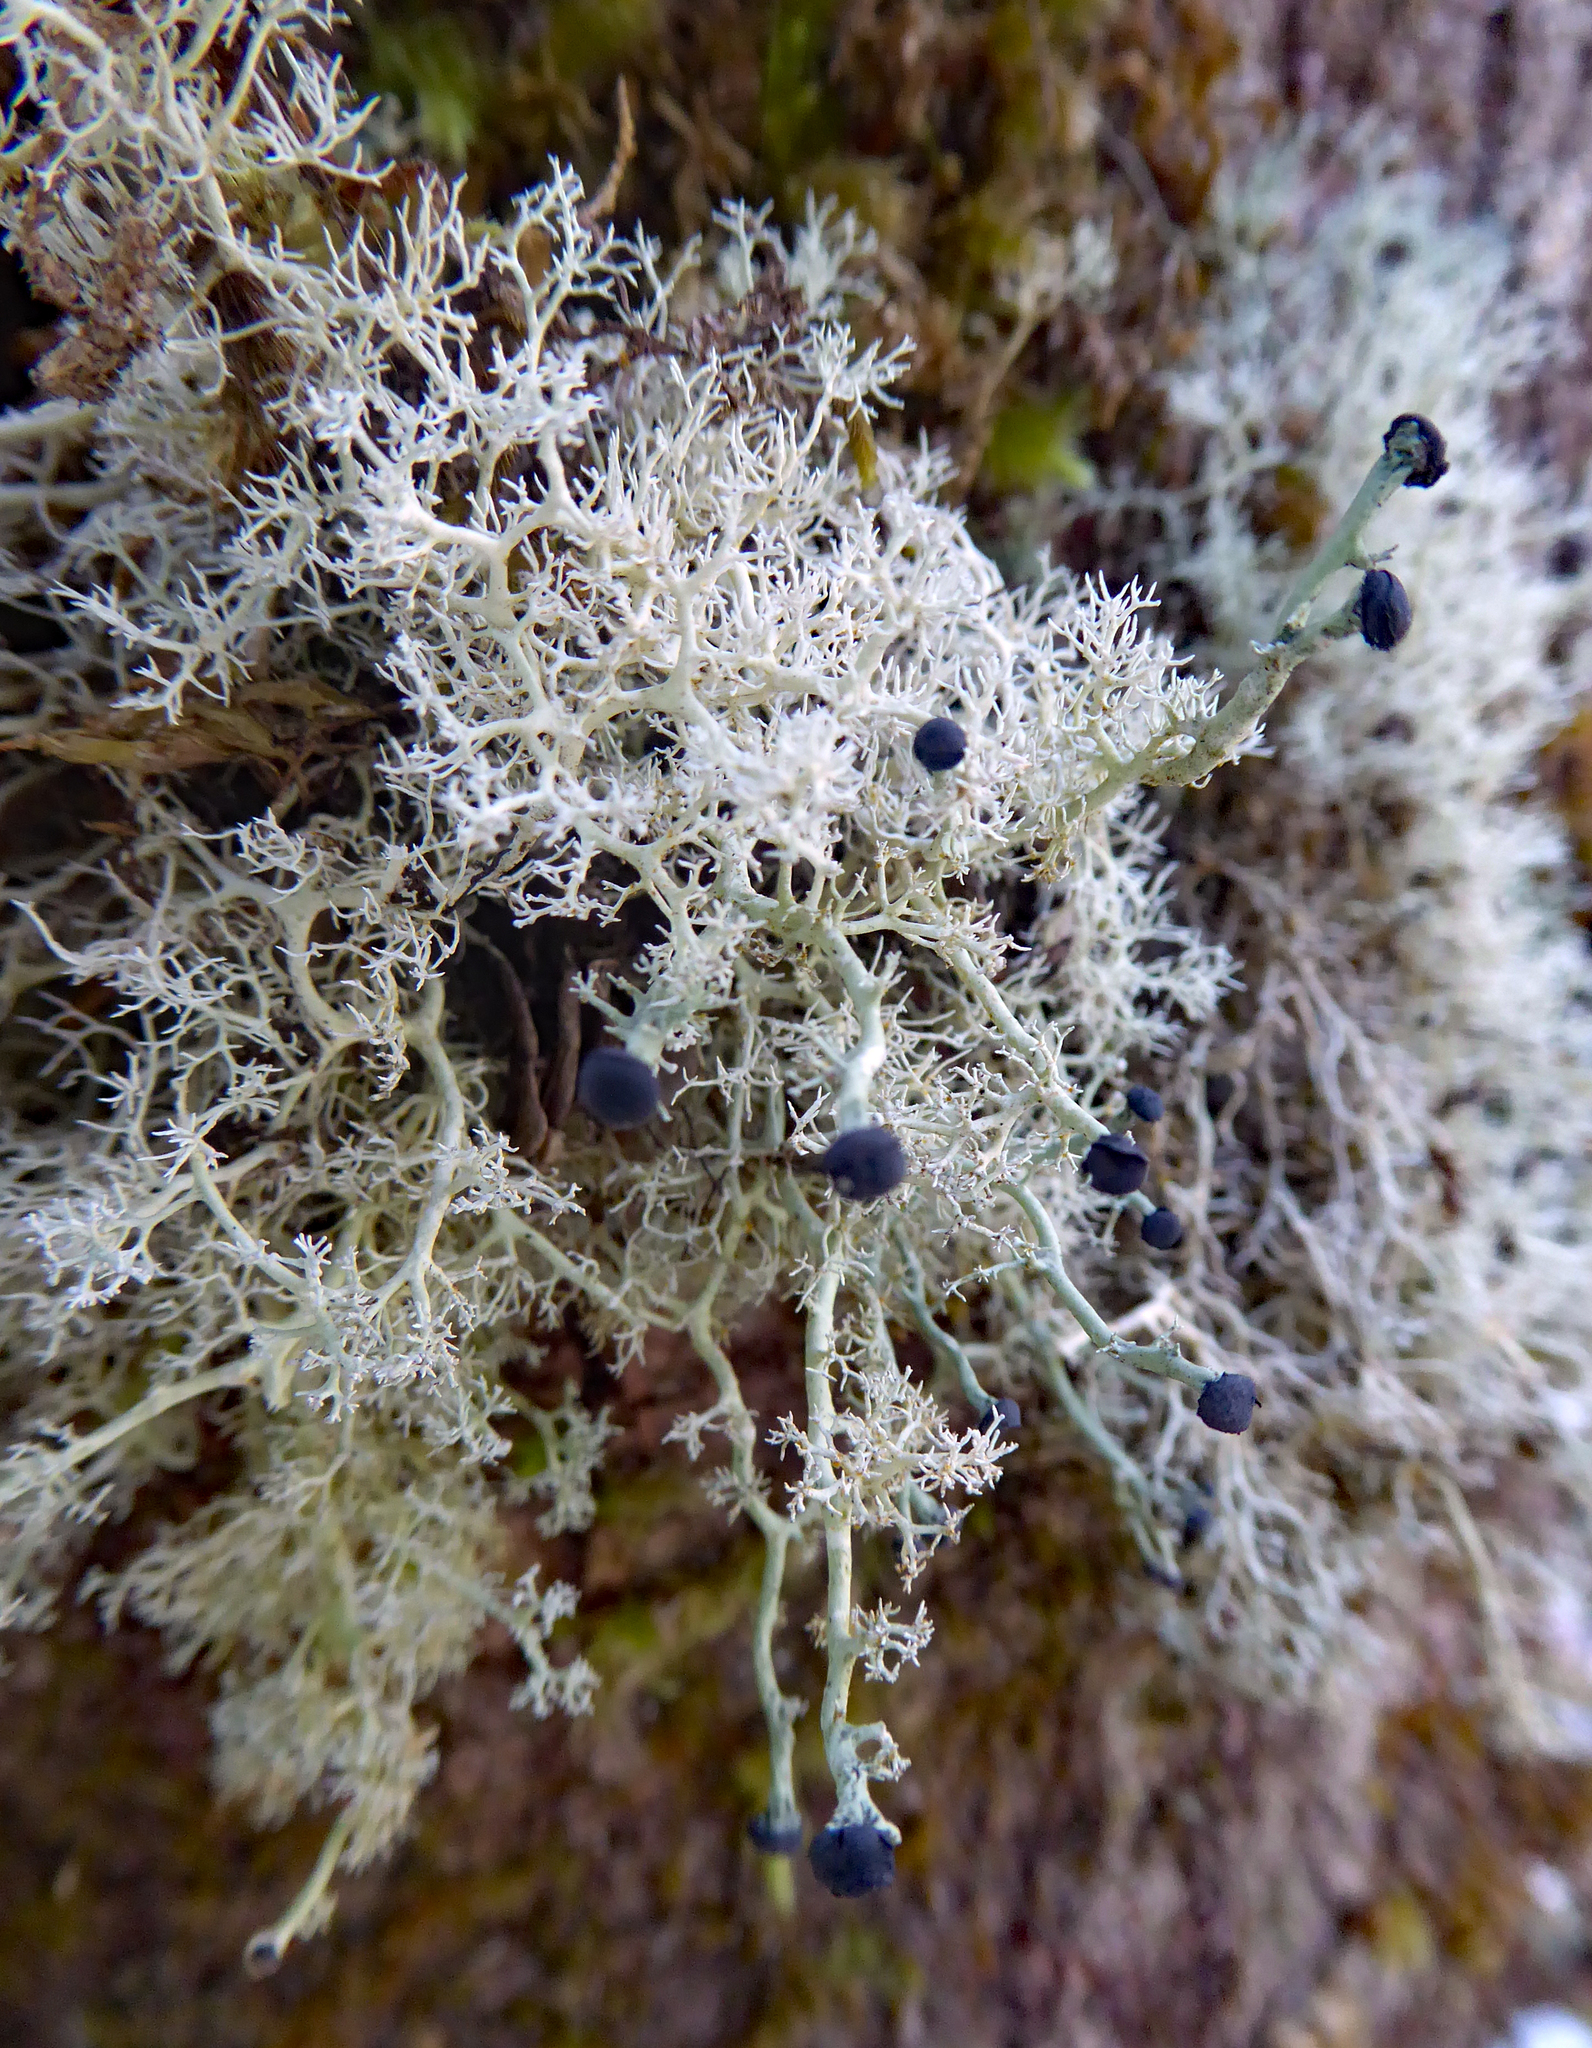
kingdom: Fungi
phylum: Ascomycota
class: Lecanoromycetes
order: Lecanorales
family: Stereocaulaceae
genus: Stereocaulon
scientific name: Stereocaulon
